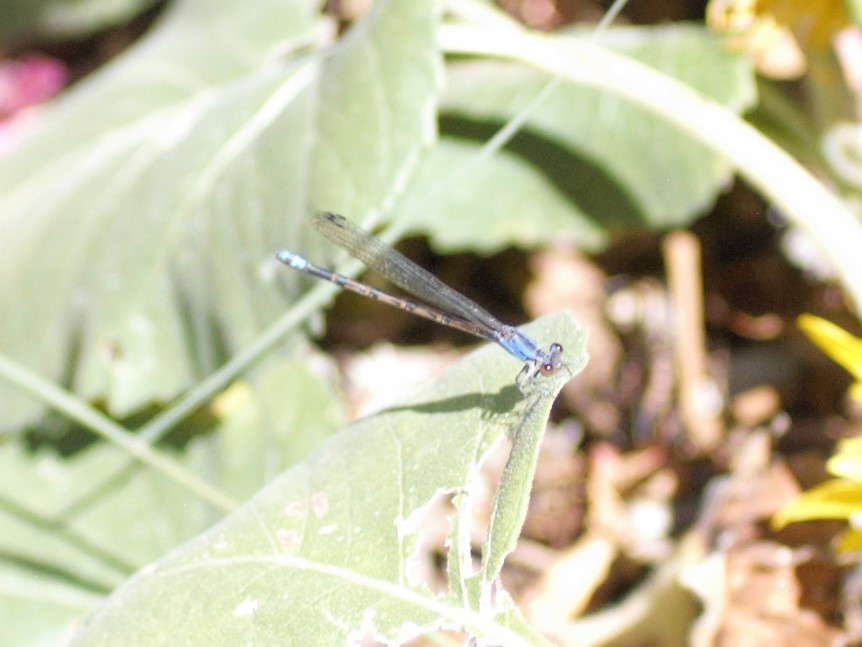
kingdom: Animalia
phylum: Arthropoda
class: Insecta
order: Odonata
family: Coenagrionidae
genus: Argia
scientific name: Argia
